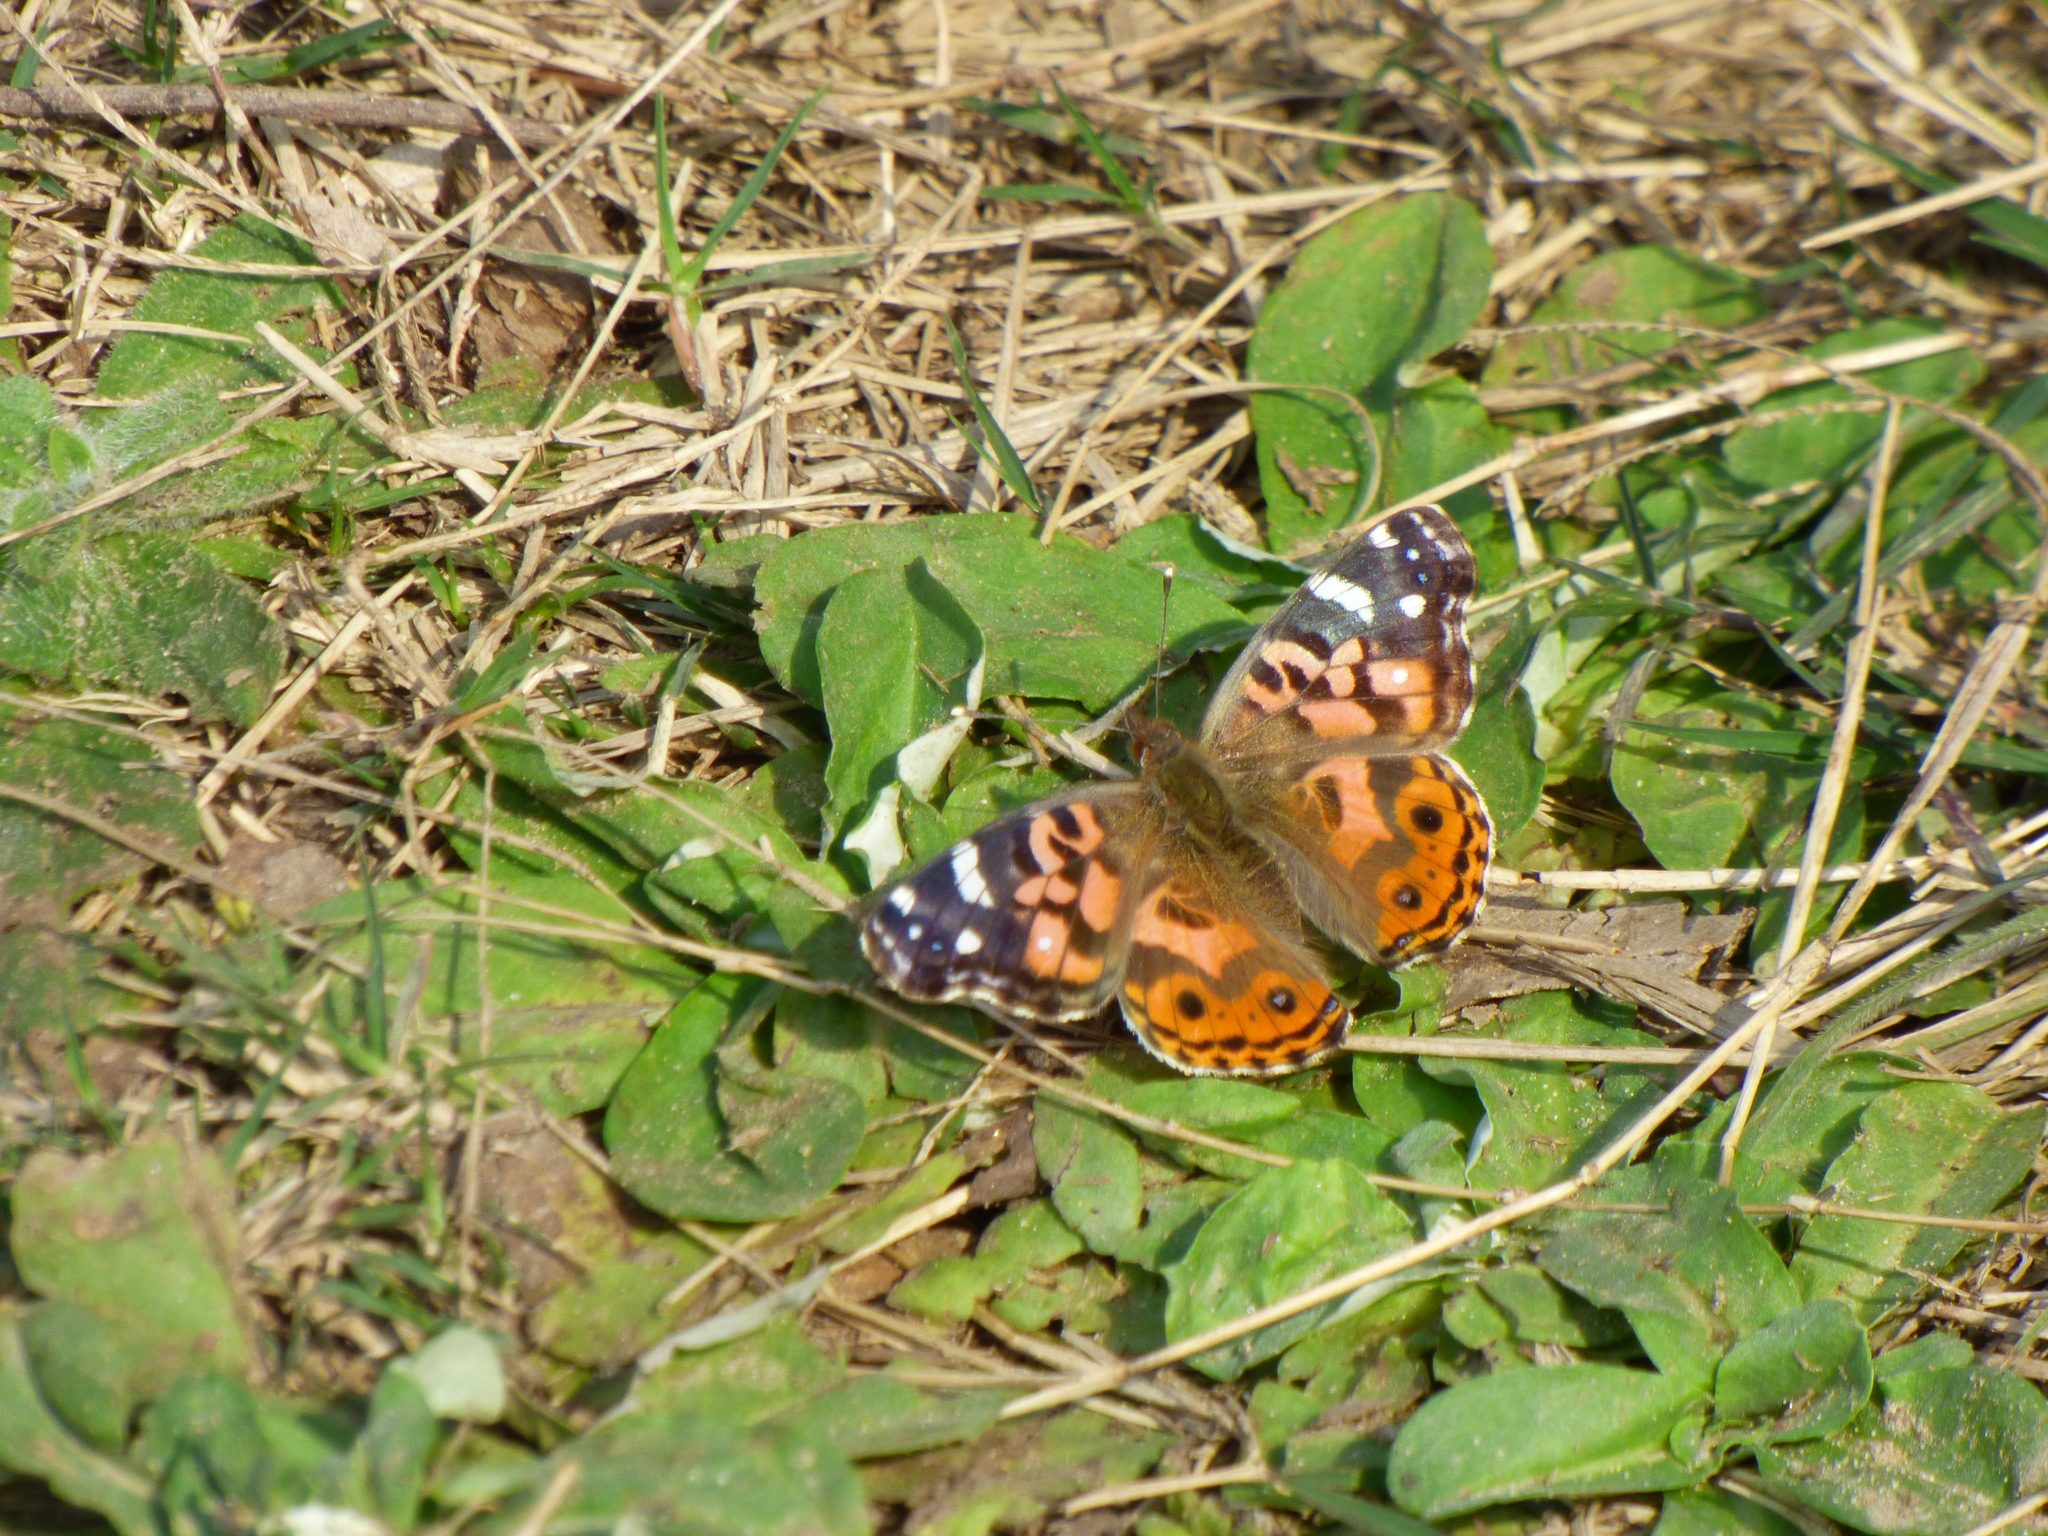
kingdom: Animalia
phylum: Arthropoda
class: Insecta
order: Lepidoptera
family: Nymphalidae
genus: Vanessa
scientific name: Vanessa braziliensis
